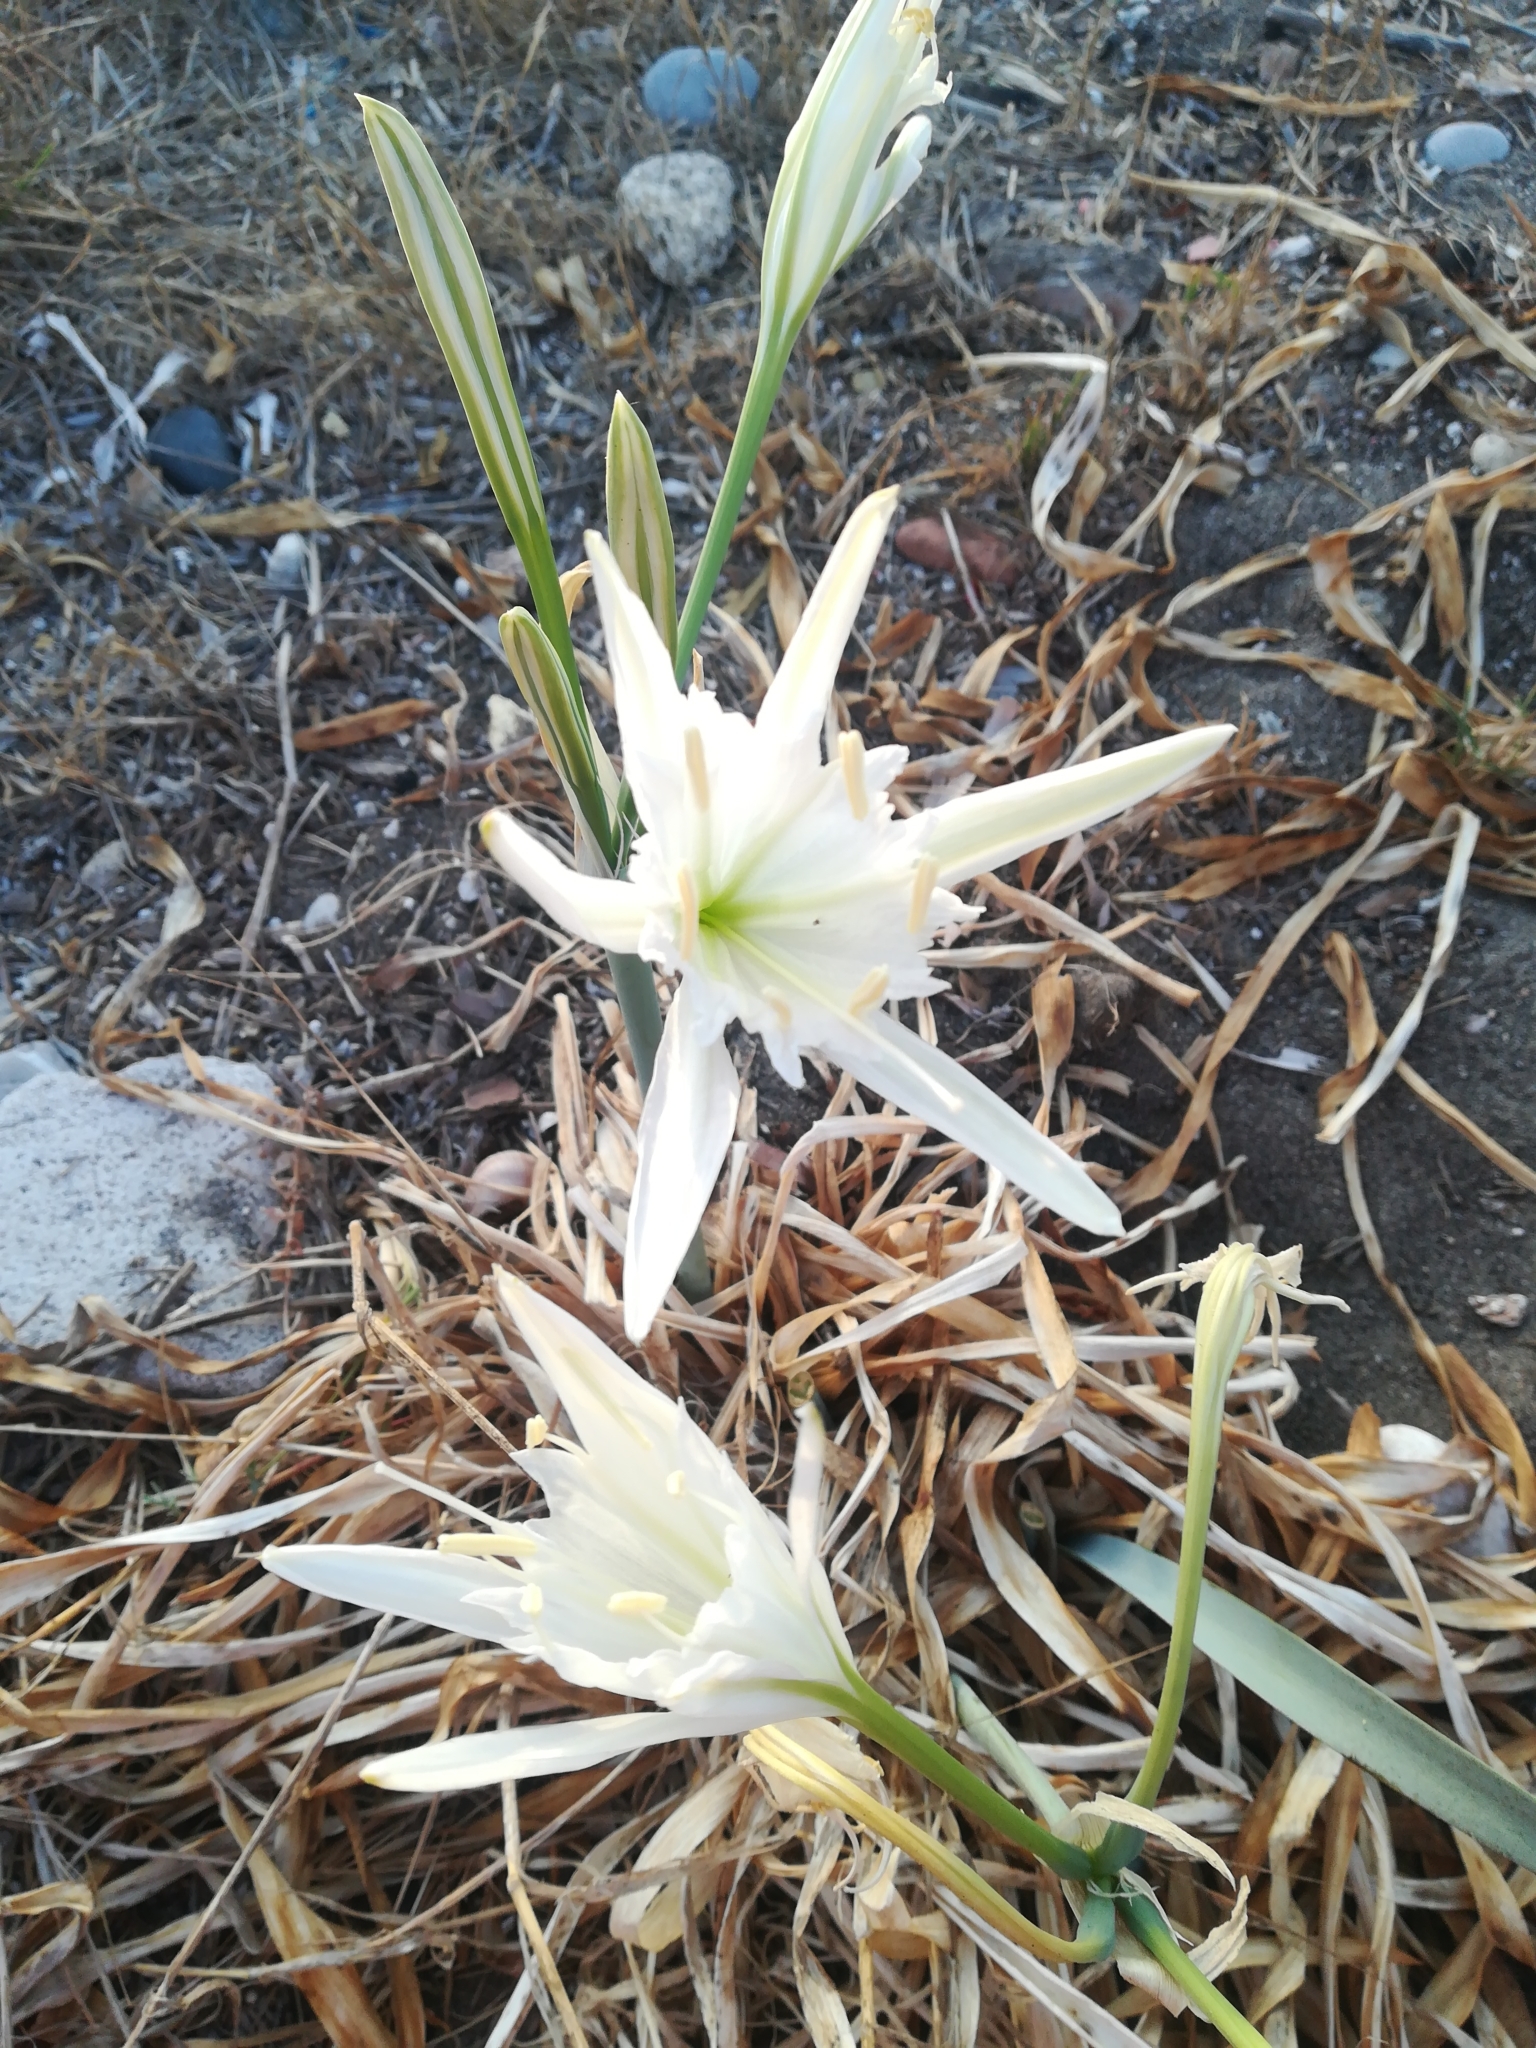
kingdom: Plantae
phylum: Tracheophyta
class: Liliopsida
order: Asparagales
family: Amaryllidaceae
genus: Pancratium
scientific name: Pancratium maritimum
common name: Sea-daffodil
